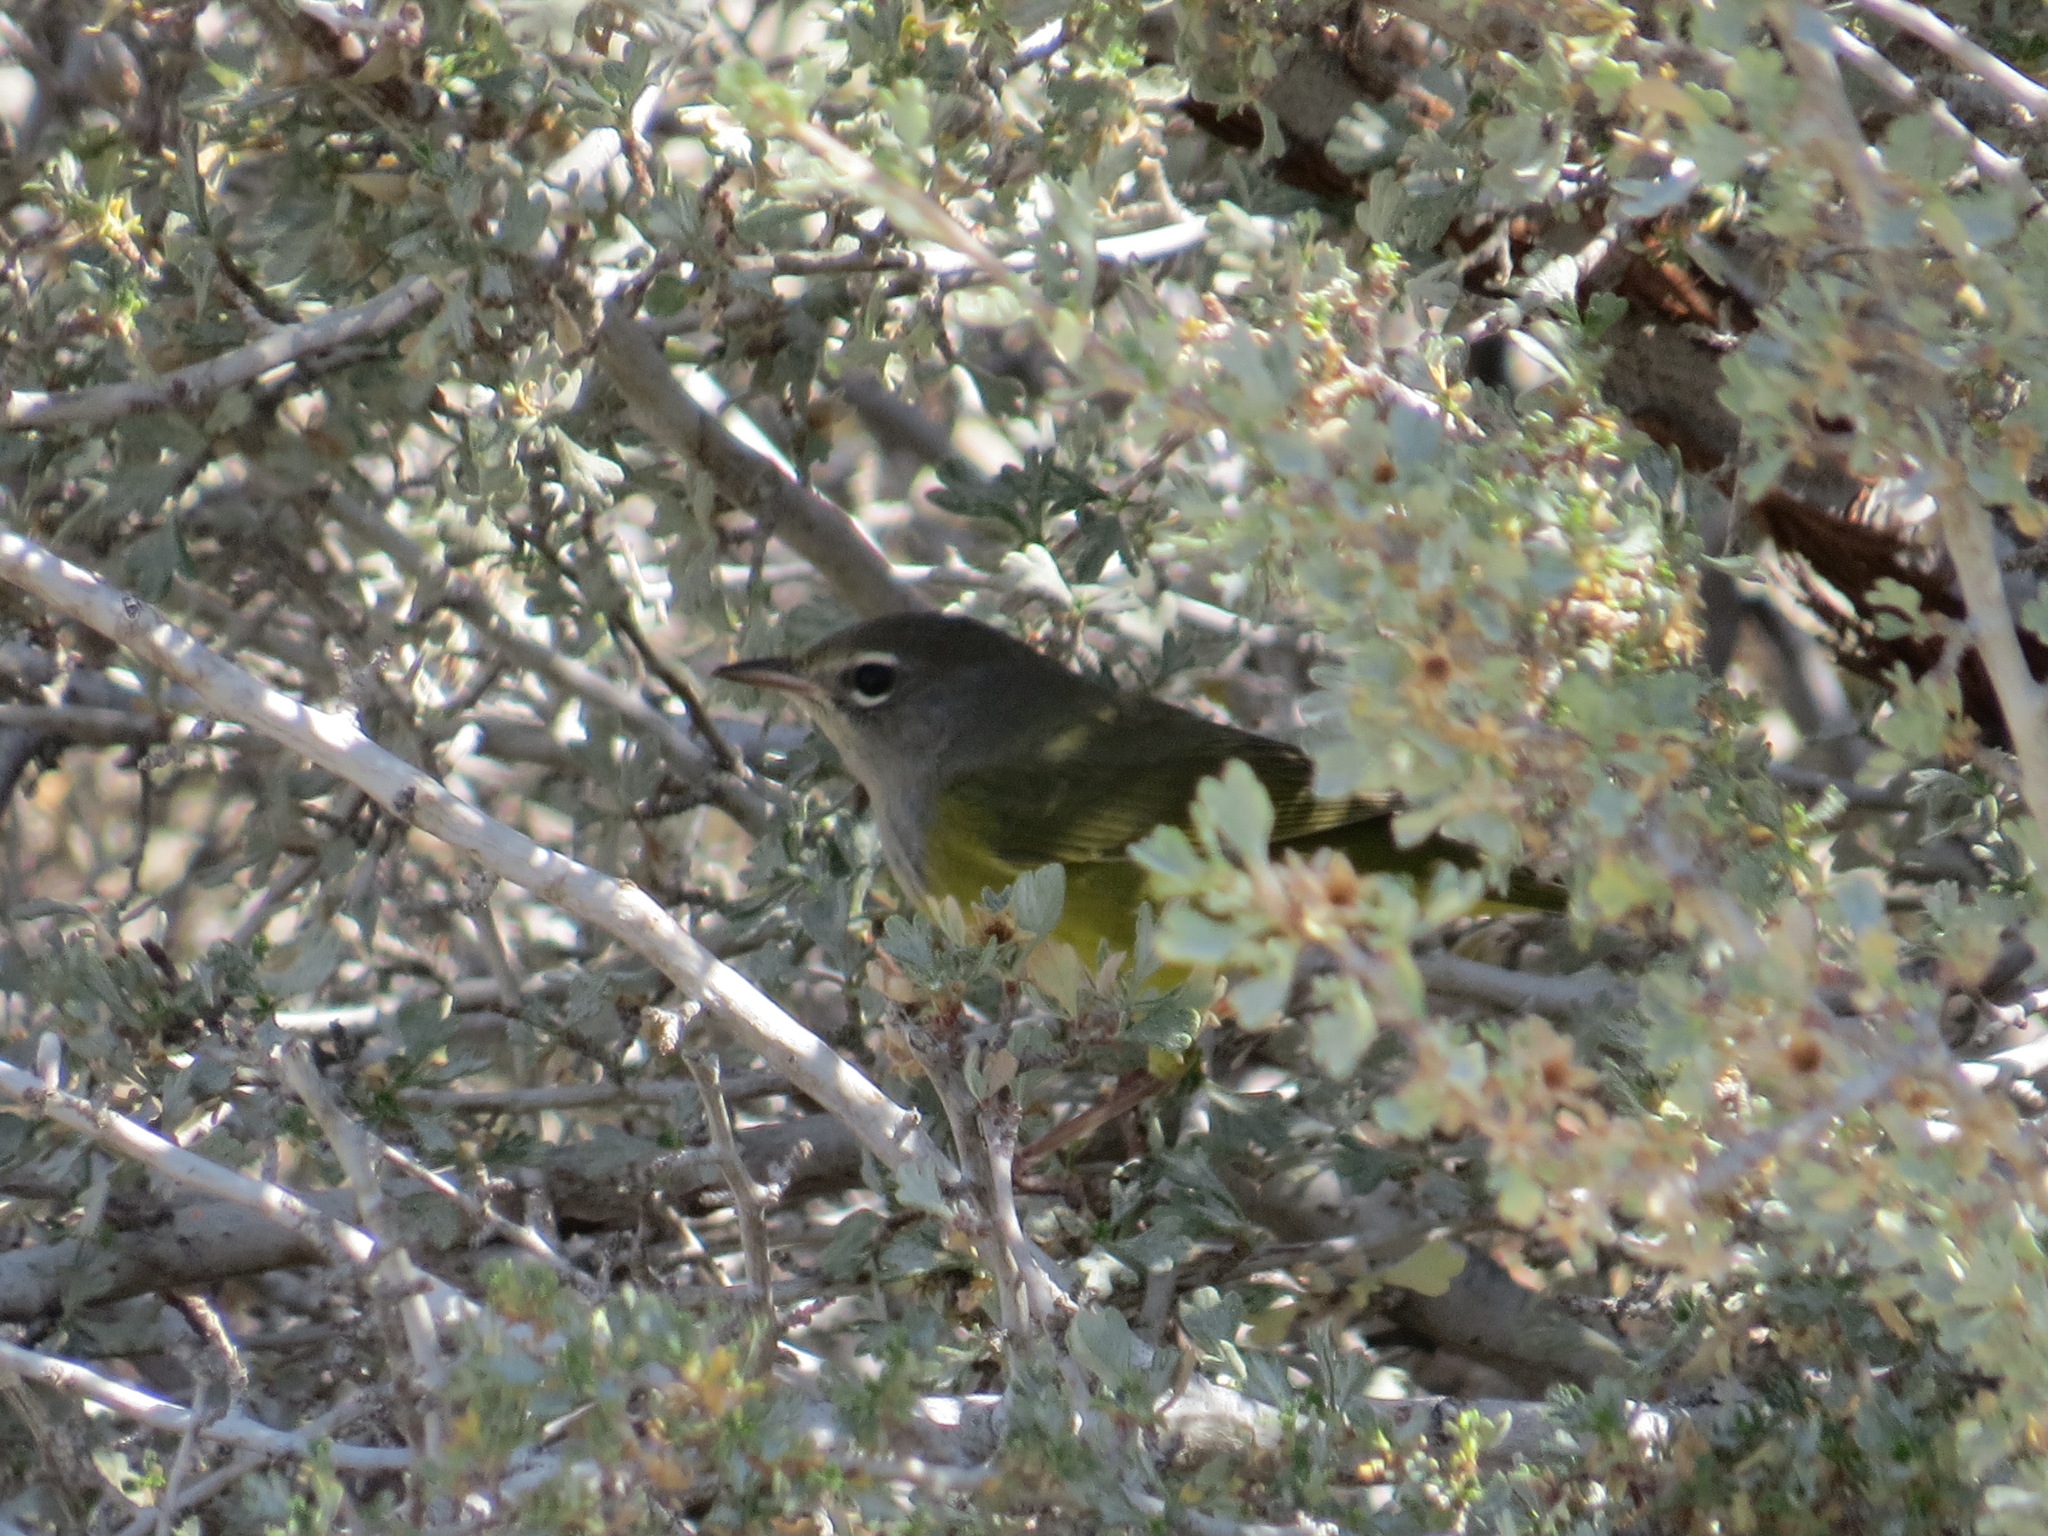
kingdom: Animalia
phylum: Chordata
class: Aves
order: Passeriformes
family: Parulidae
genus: Geothlypis
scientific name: Geothlypis tolmiei
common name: Macgillivray's warbler
